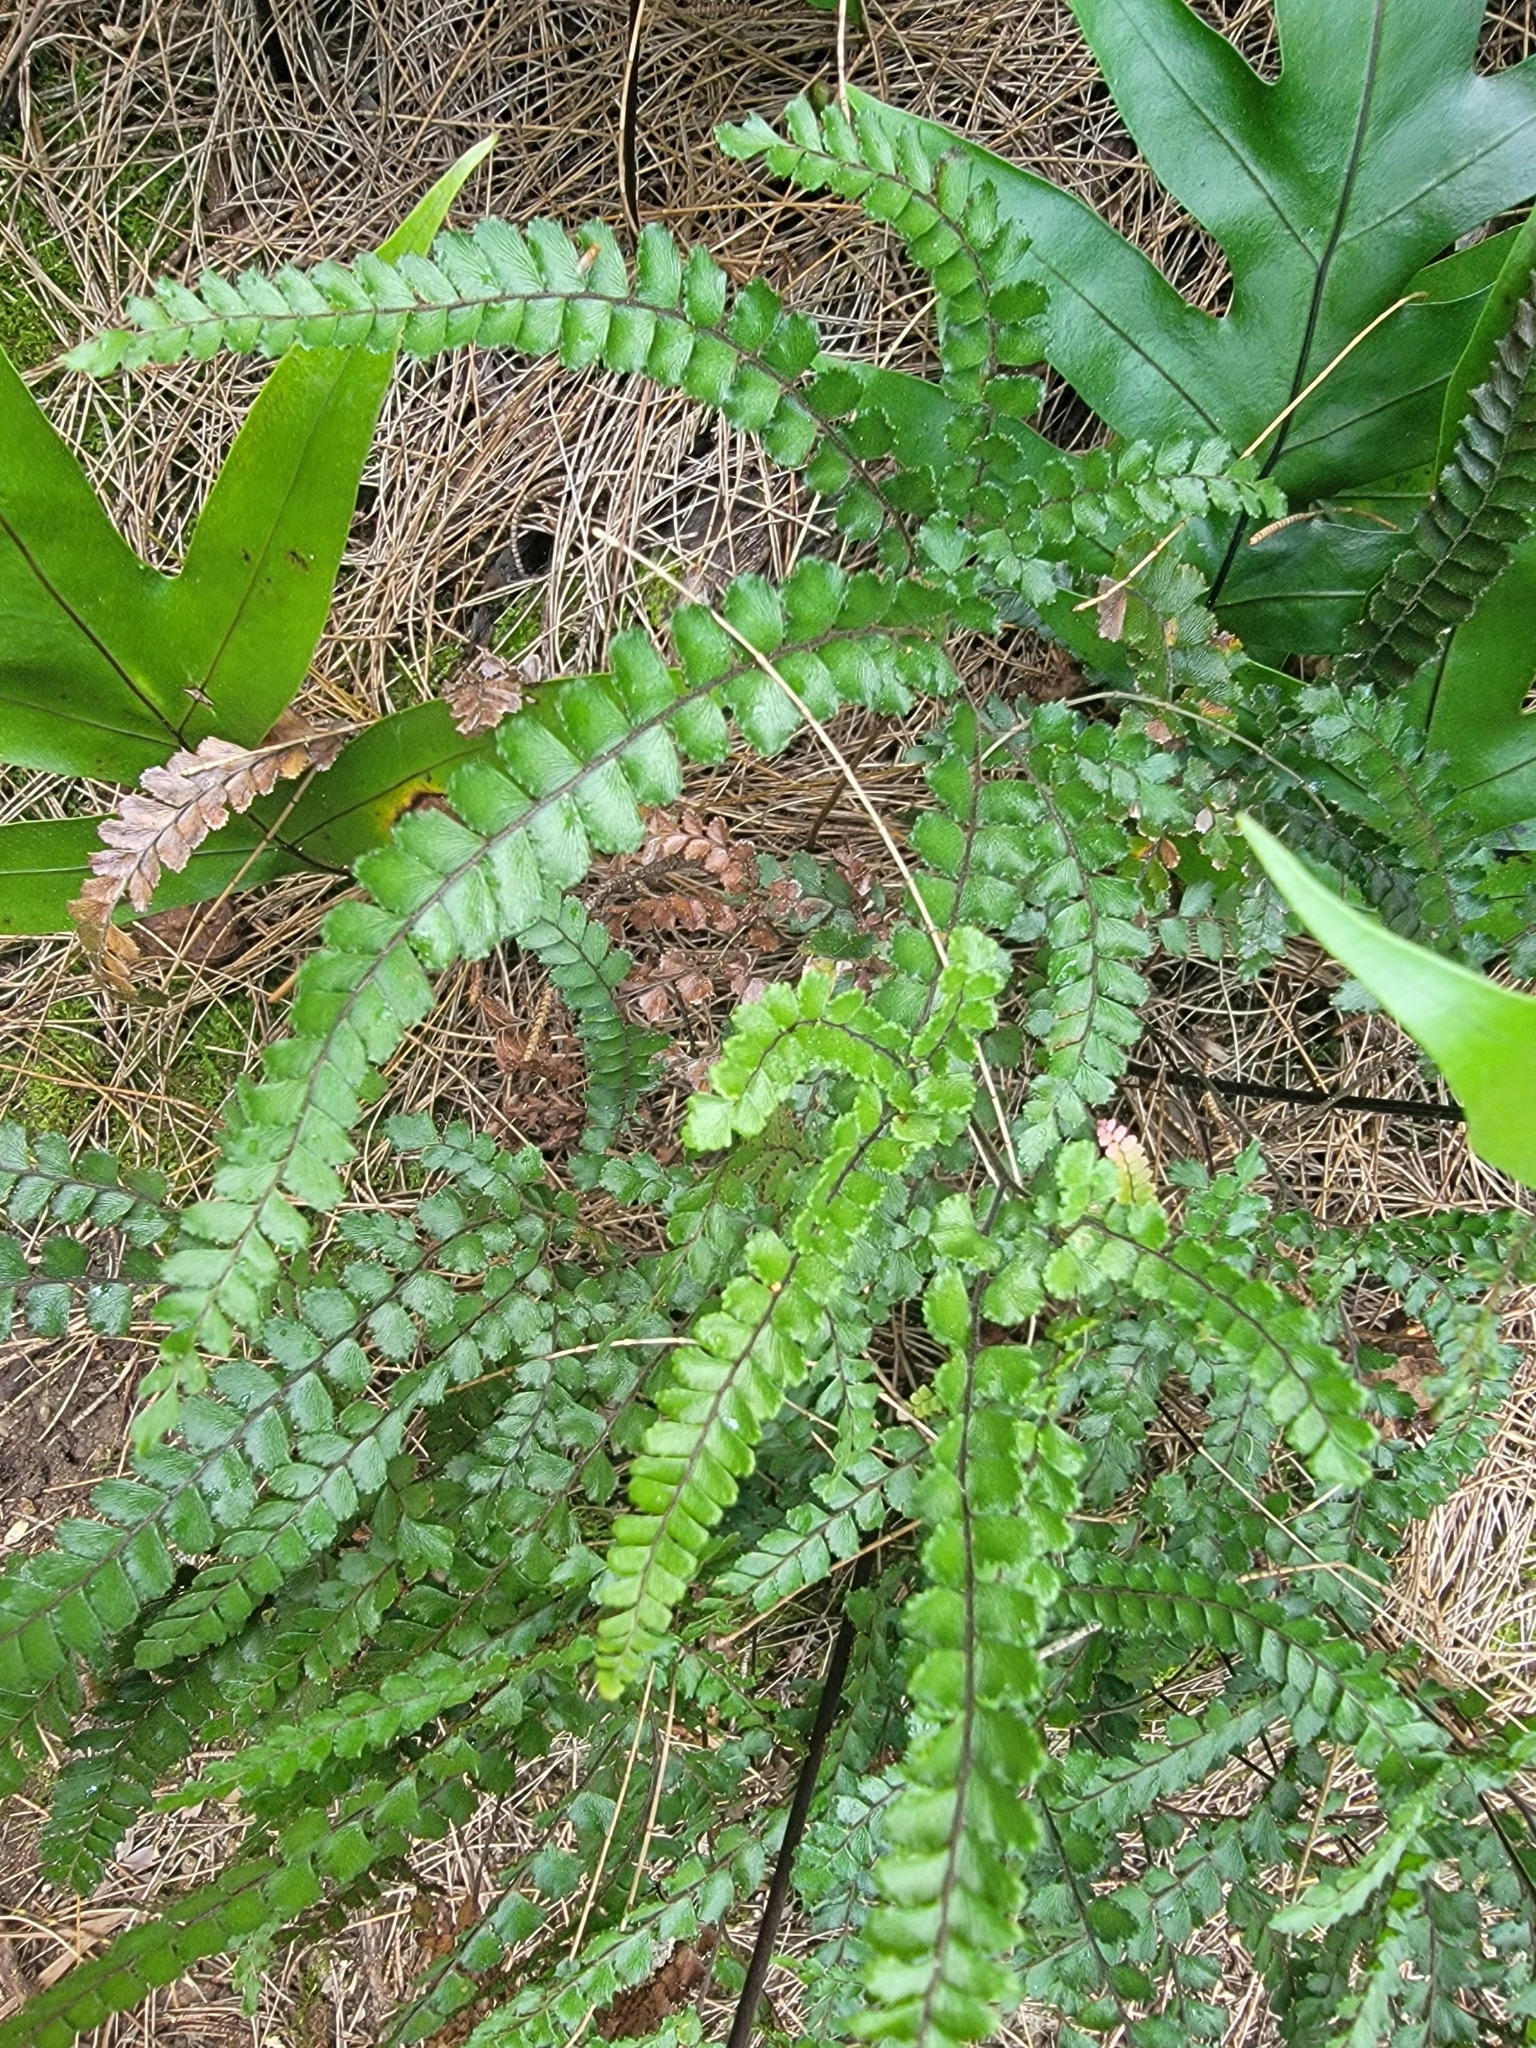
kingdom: Plantae
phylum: Tracheophyta
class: Polypodiopsida
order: Polypodiales
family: Pteridaceae
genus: Adiantum
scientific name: Adiantum hispidulum
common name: Rough maidenhair
